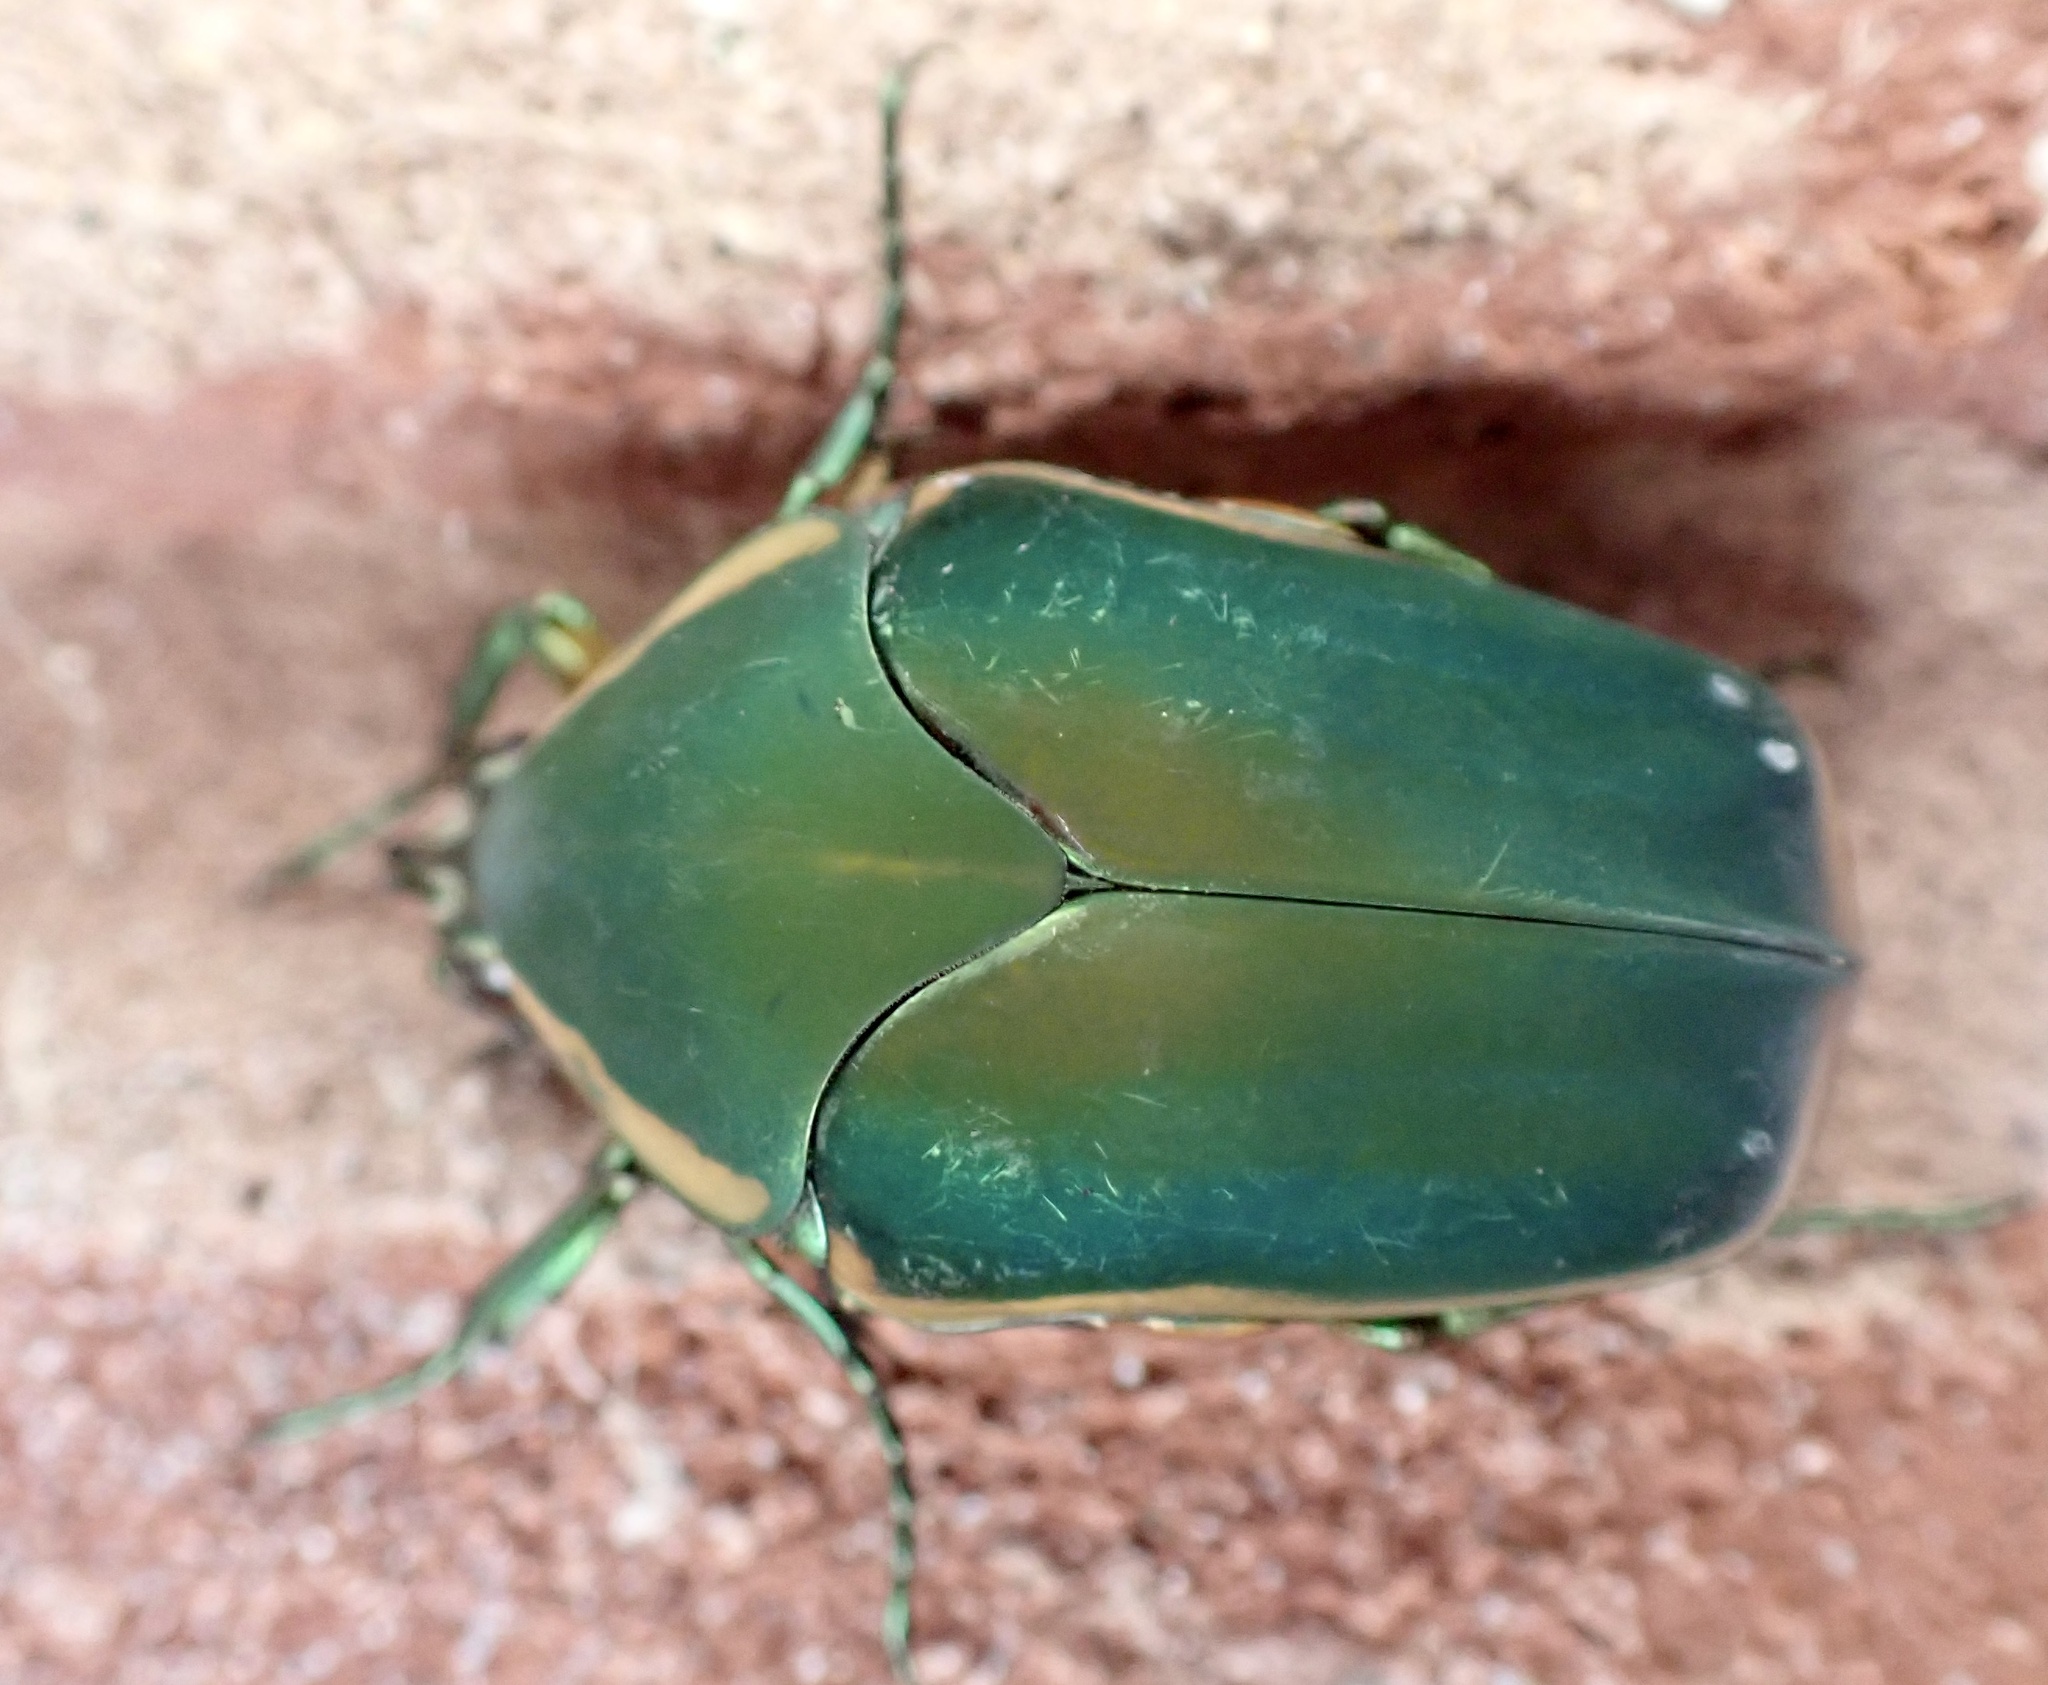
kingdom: Animalia
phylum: Arthropoda
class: Insecta
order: Coleoptera
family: Scarabaeidae
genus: Cotinis
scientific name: Cotinis nitida
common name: Common green june beetle
